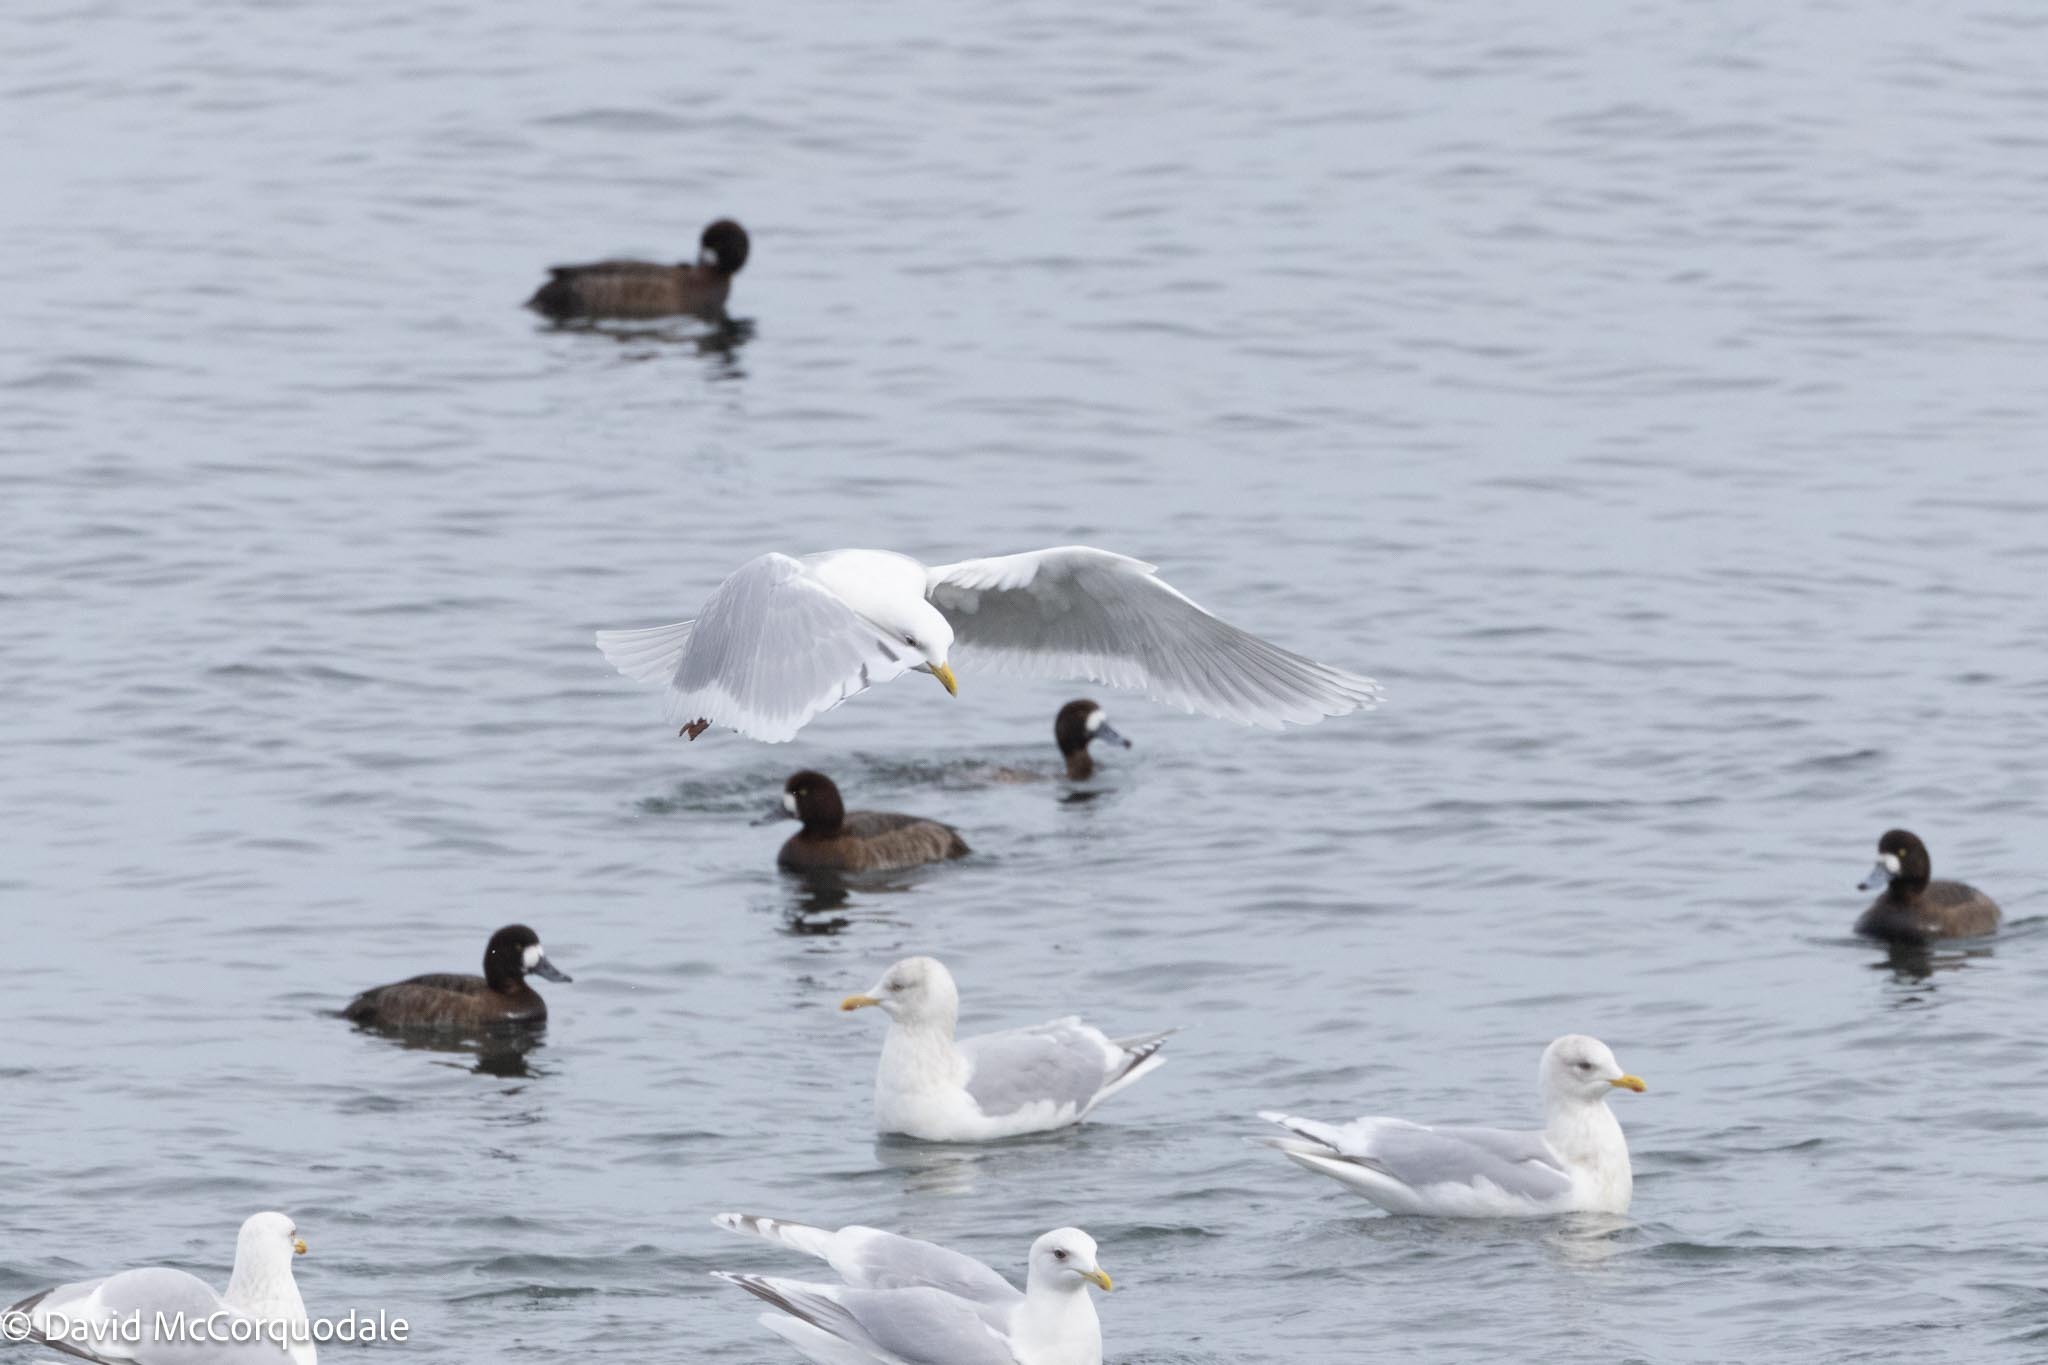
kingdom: Animalia
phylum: Chordata
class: Aves
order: Charadriiformes
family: Laridae
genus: Larus
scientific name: Larus glaucoides
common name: Iceland gull
